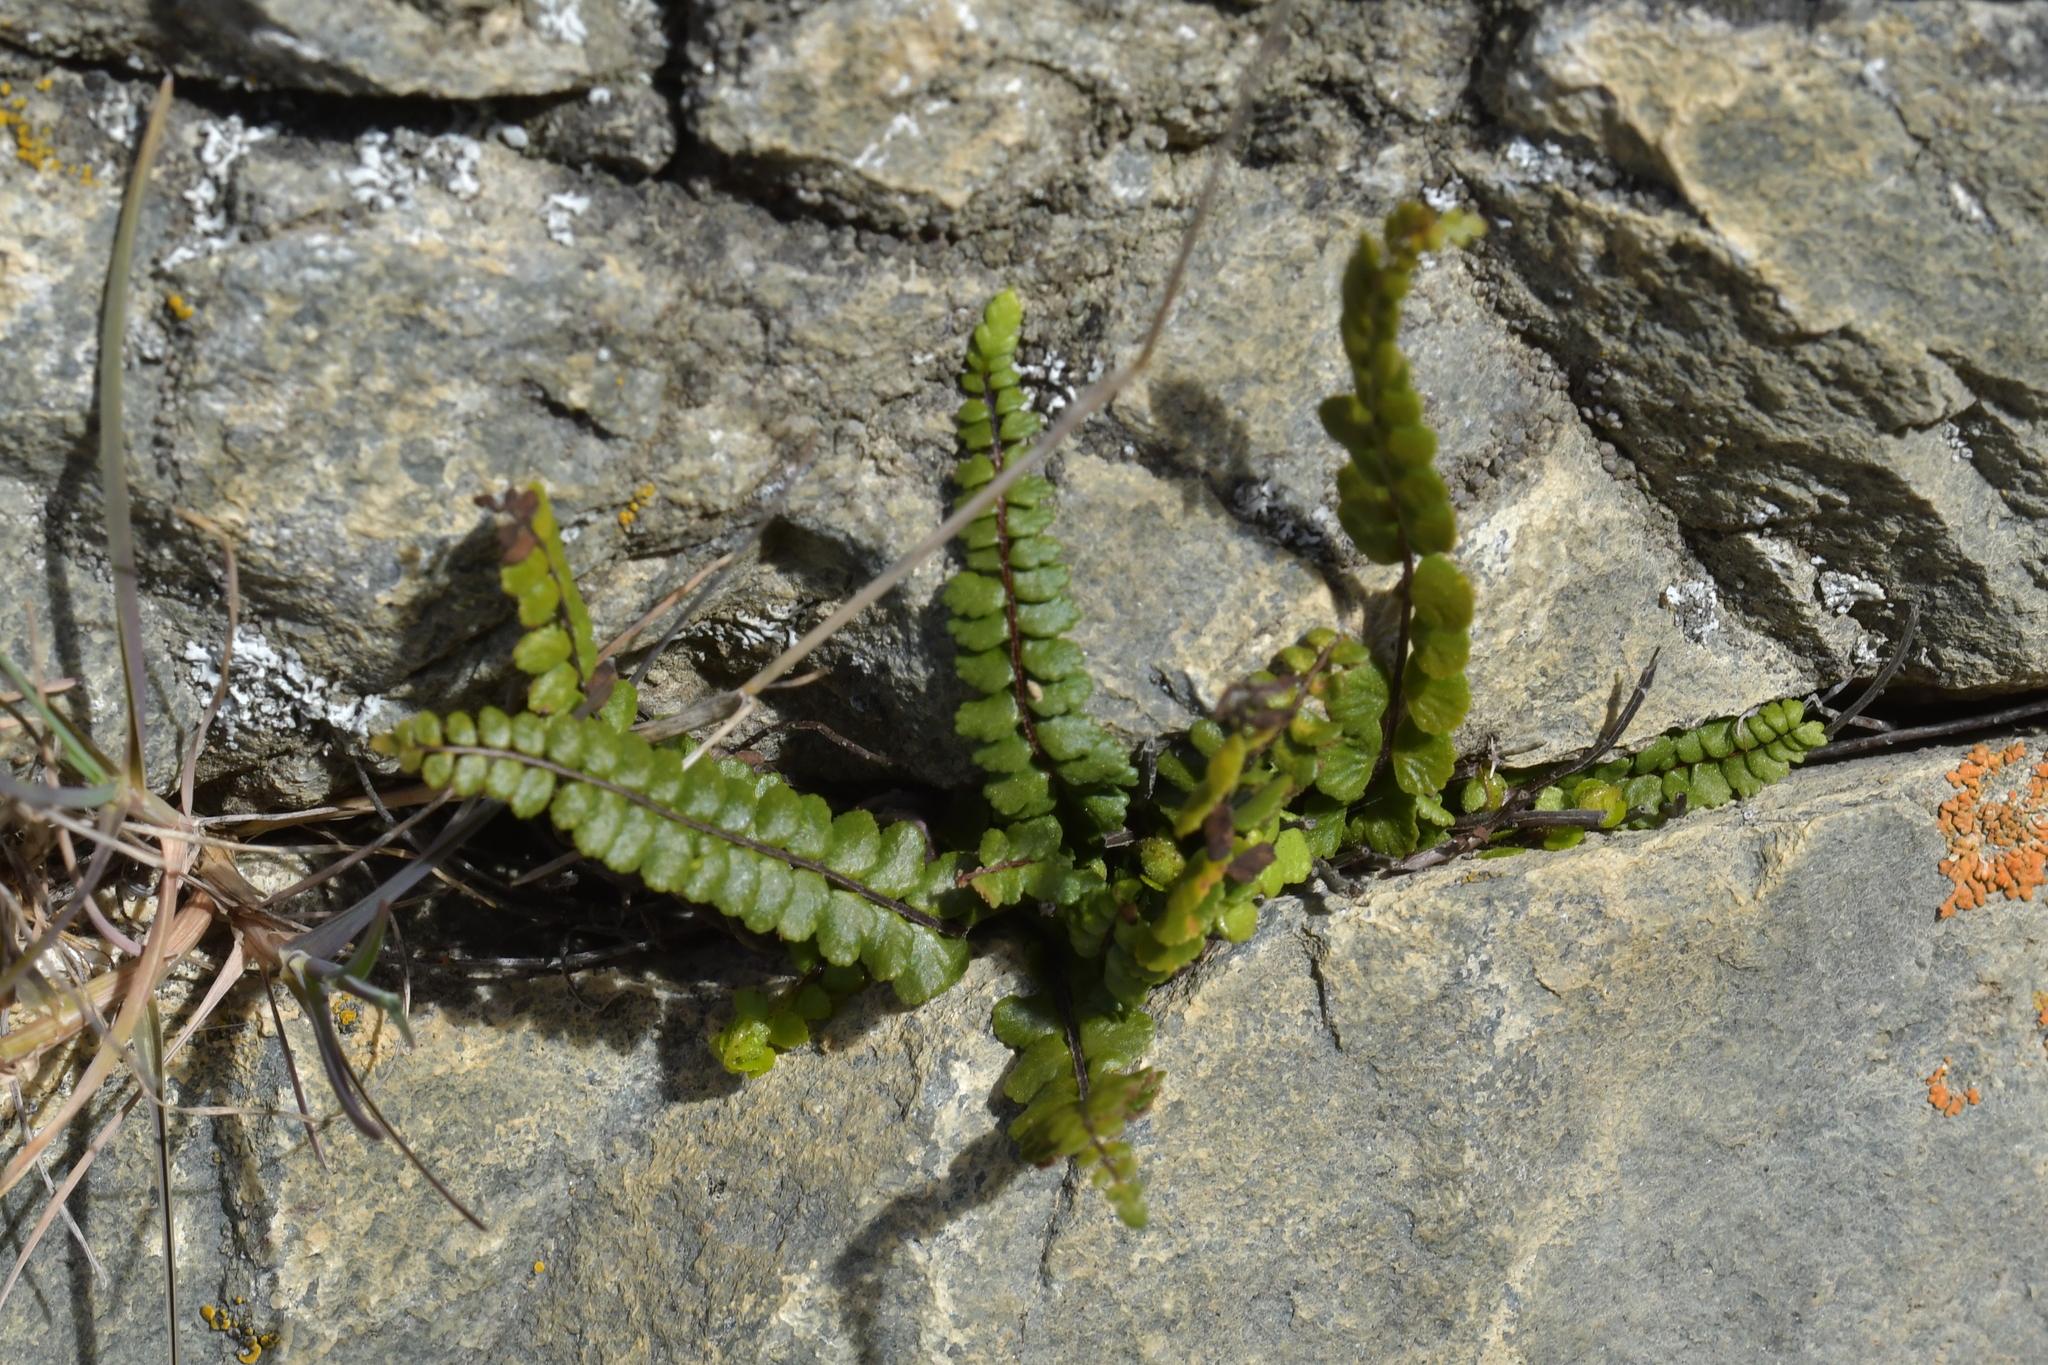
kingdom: Plantae
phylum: Tracheophyta
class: Polypodiopsida
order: Polypodiales
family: Aspleniaceae
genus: Asplenium
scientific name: Asplenium trichomanes
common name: Maidenhair spleenwort
